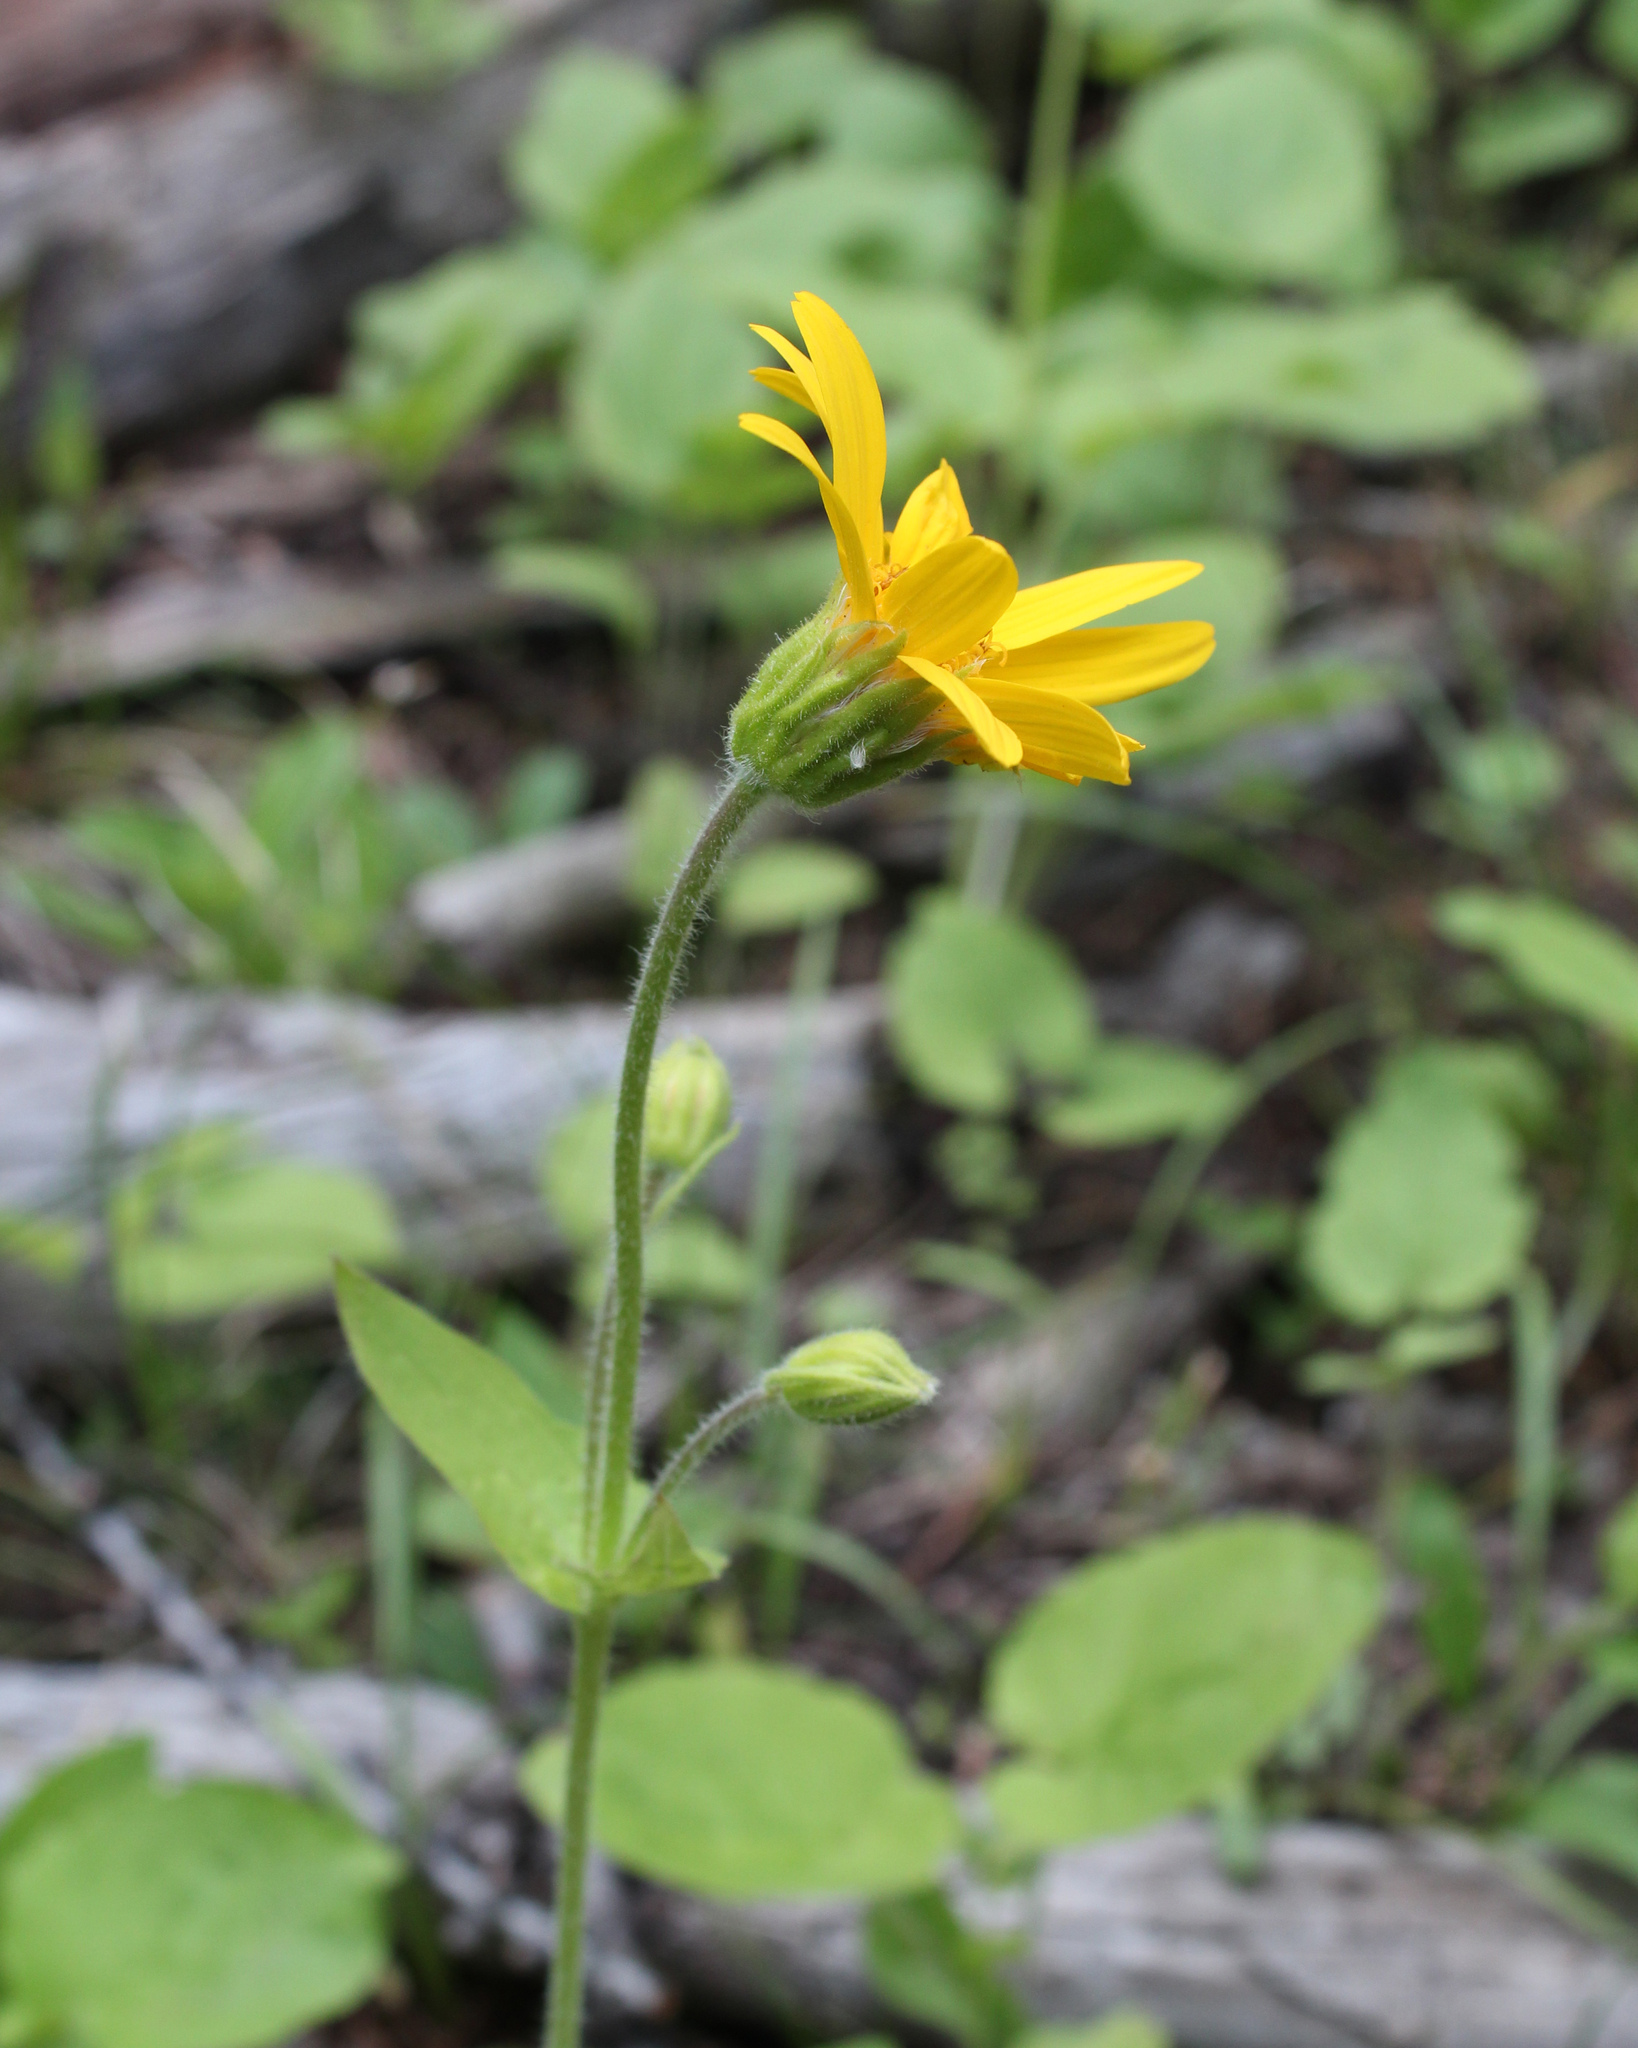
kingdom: Plantae
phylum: Tracheophyta
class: Magnoliopsida
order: Asterales
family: Asteraceae
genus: Arnica
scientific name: Arnica cordifolia
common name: Heart-leaf arnica
